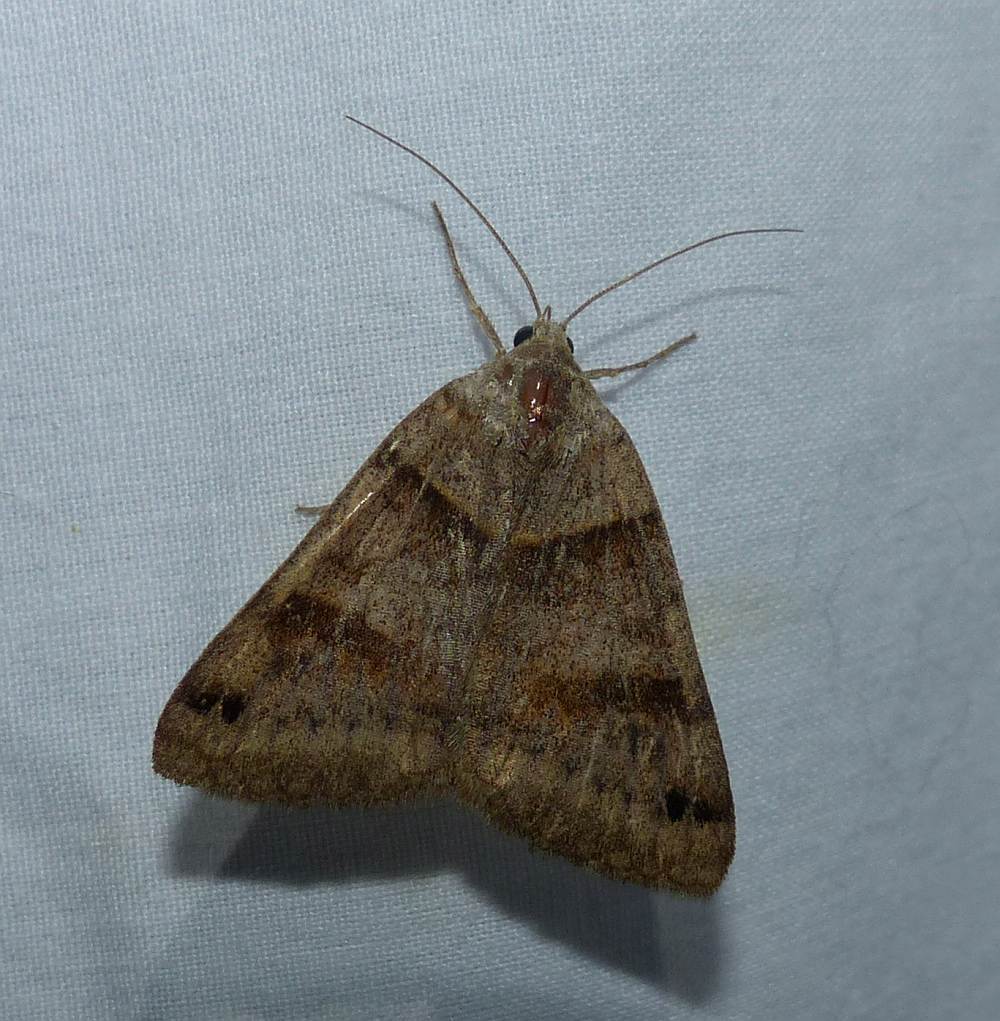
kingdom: Animalia
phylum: Arthropoda
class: Insecta
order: Lepidoptera
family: Erebidae
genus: Caenurgina
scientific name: Caenurgina crassiuscula
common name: Double-barred
